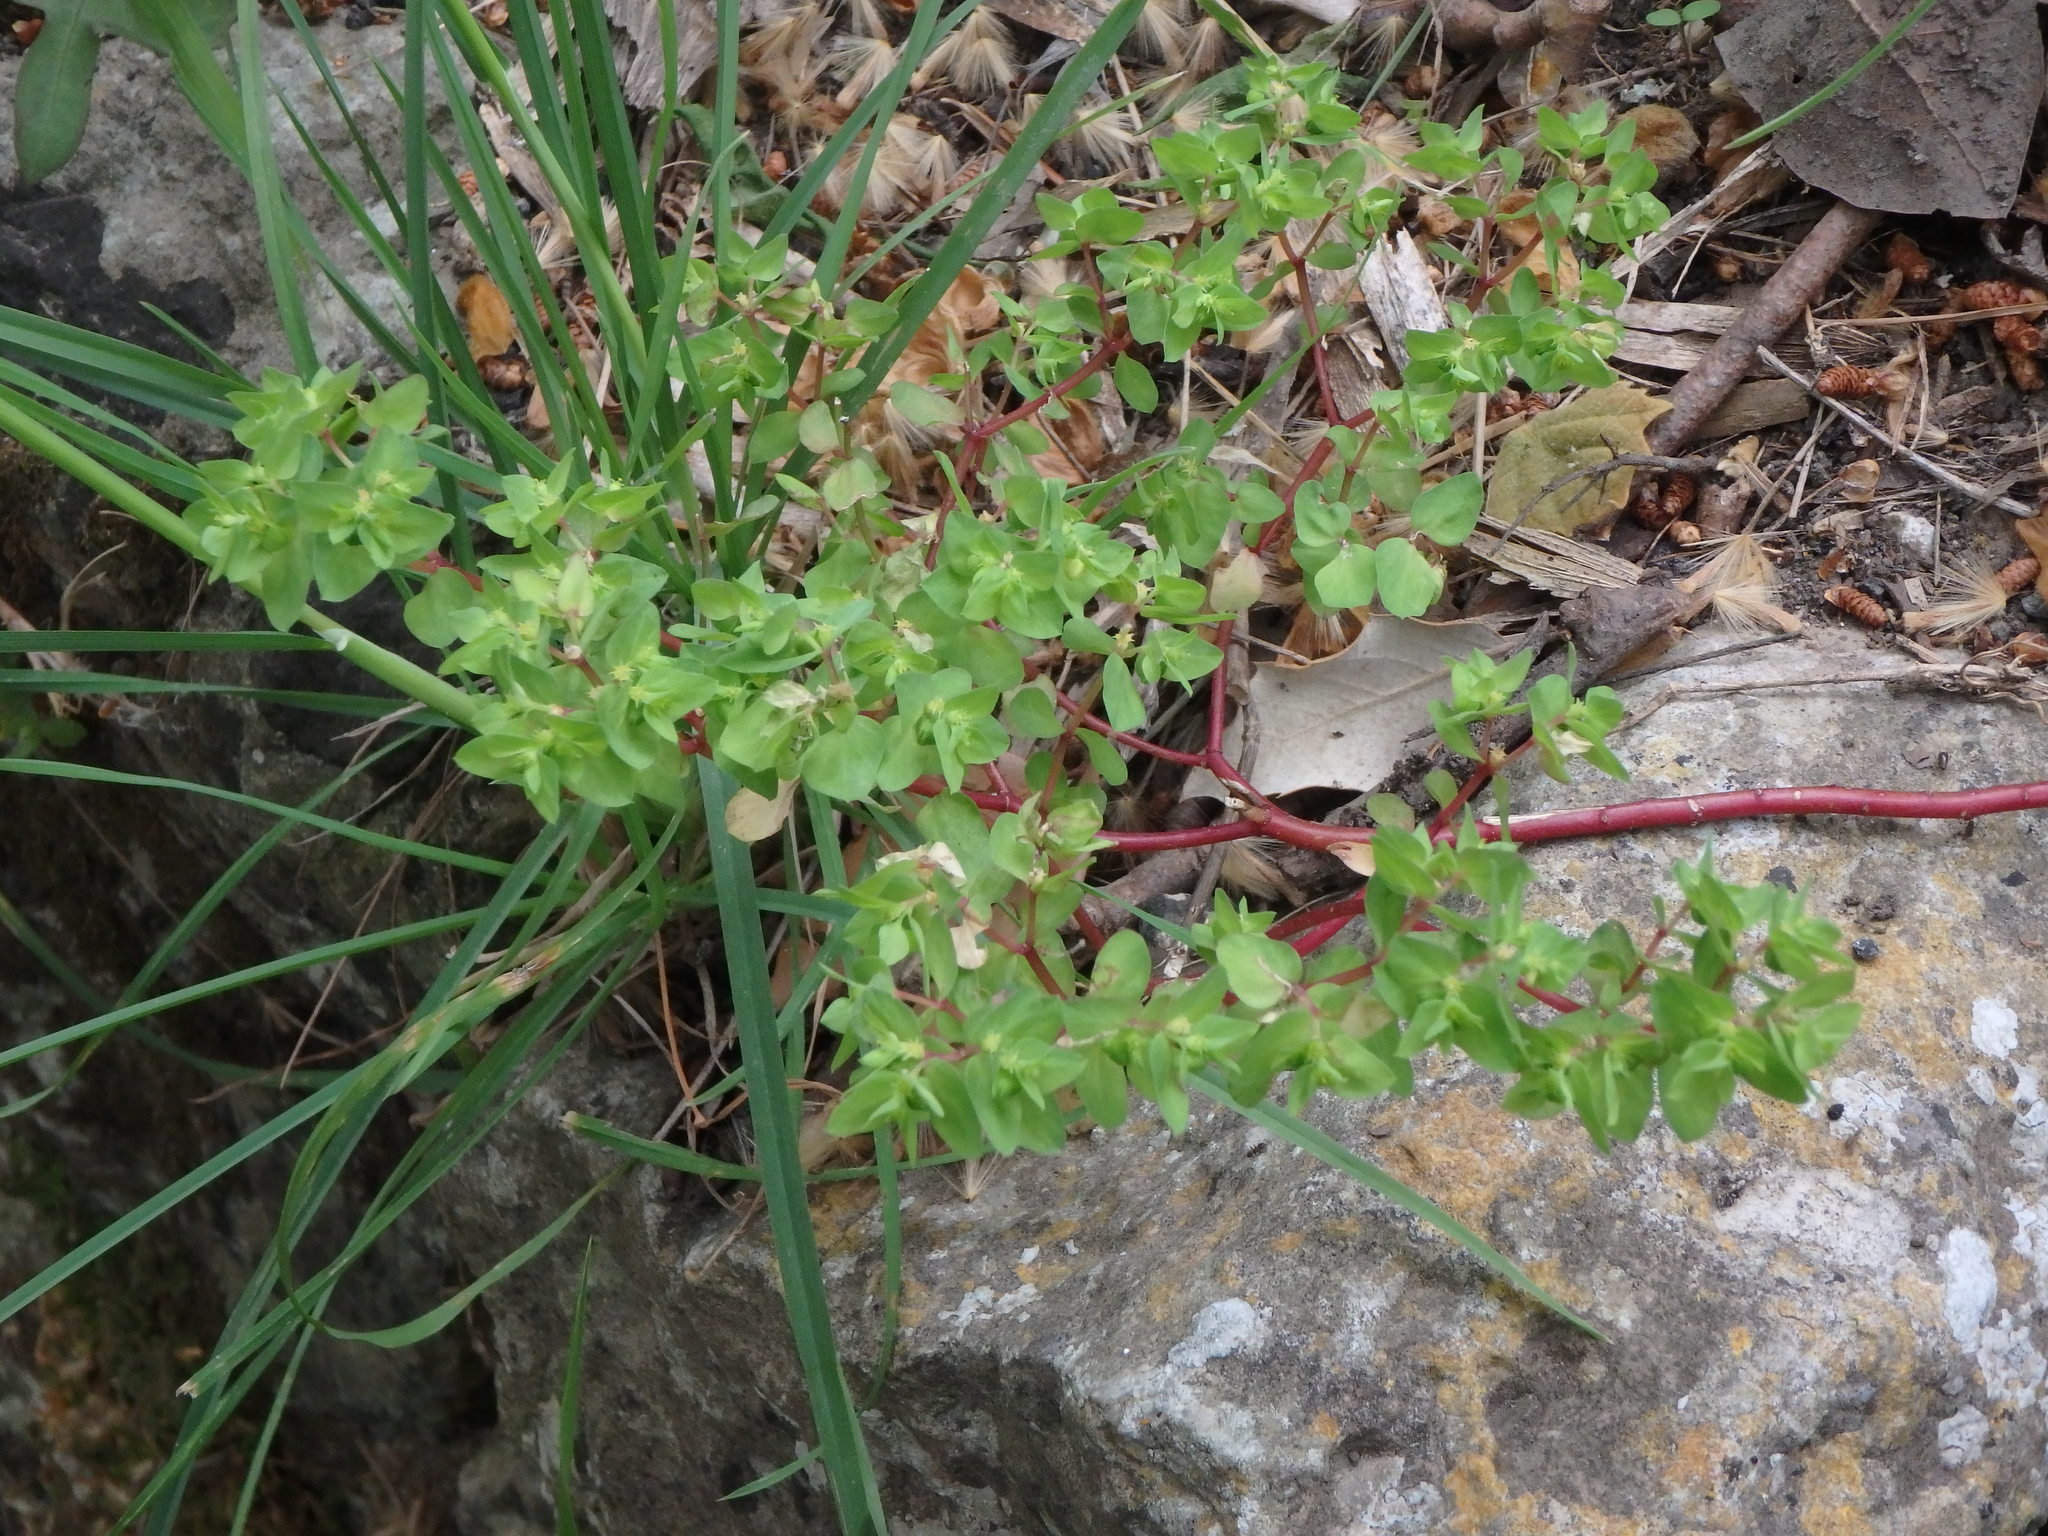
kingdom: Plantae
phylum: Tracheophyta
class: Magnoliopsida
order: Malpighiales
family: Euphorbiaceae
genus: Euphorbia
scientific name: Euphorbia peplus
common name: Petty spurge
